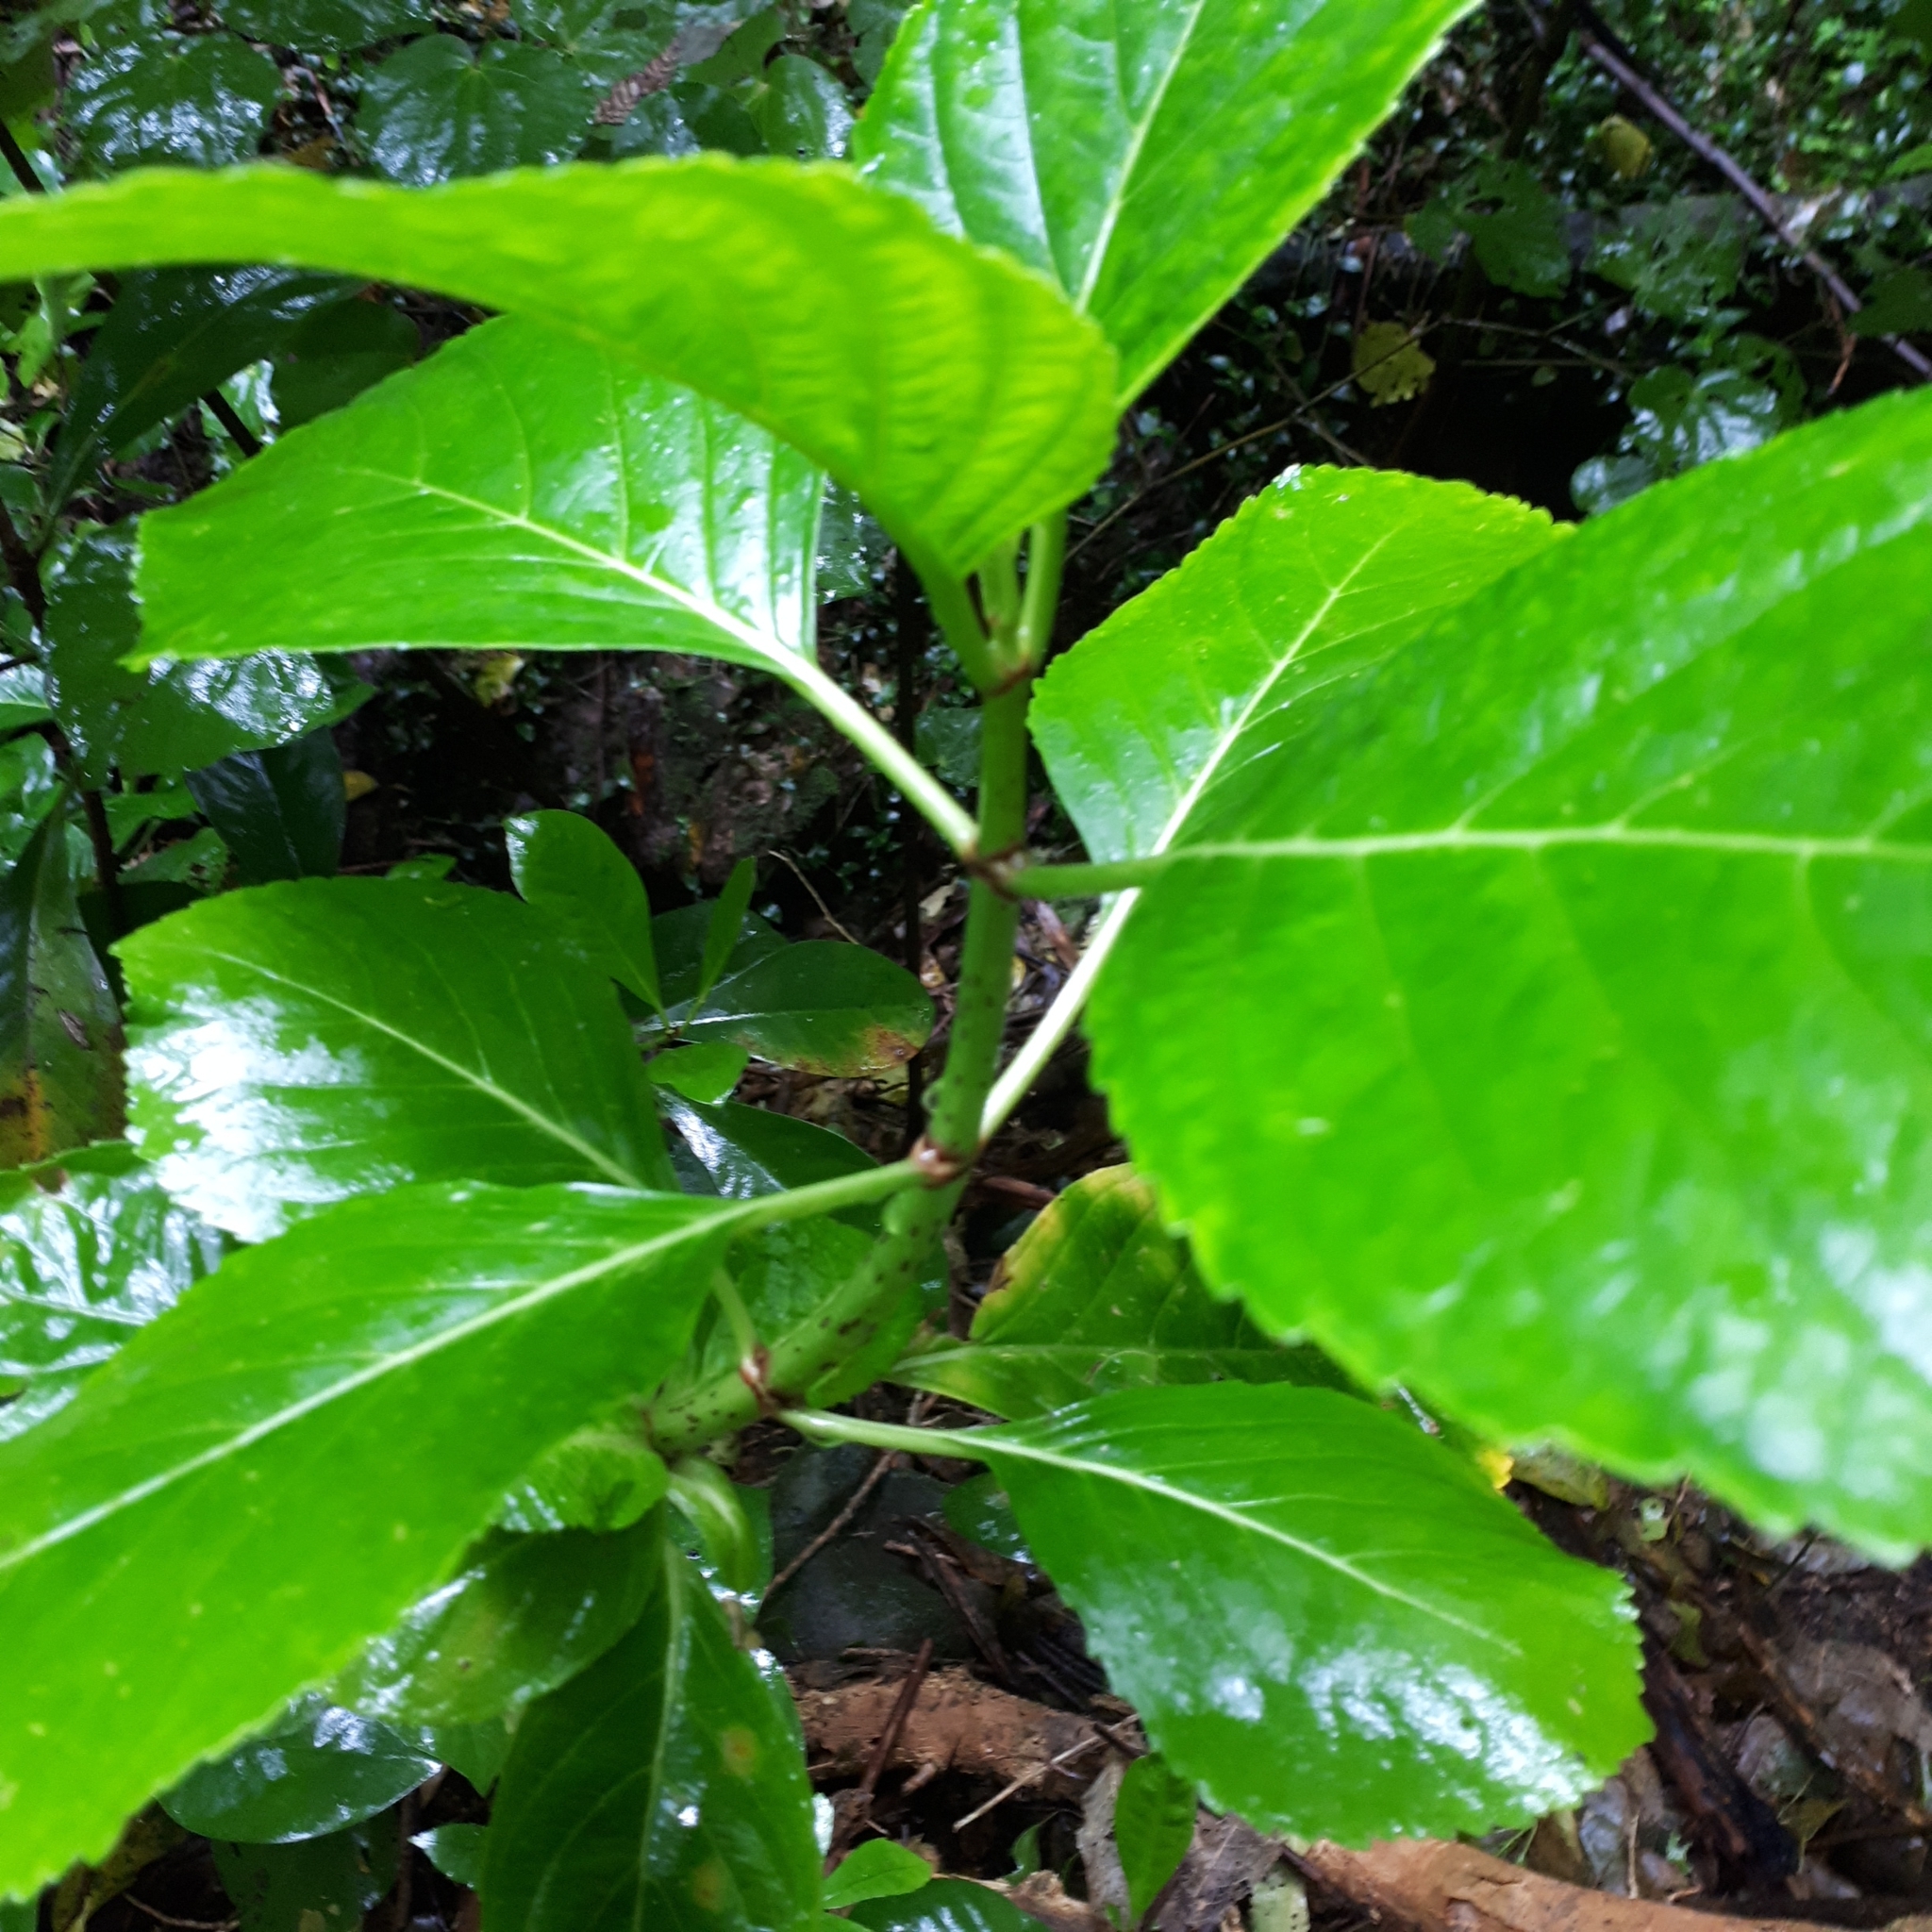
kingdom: Plantae
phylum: Tracheophyta
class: Magnoliopsida
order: Cornales
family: Hydrangeaceae
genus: Hydrangea
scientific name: Hydrangea macrophylla
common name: Hydrangea
